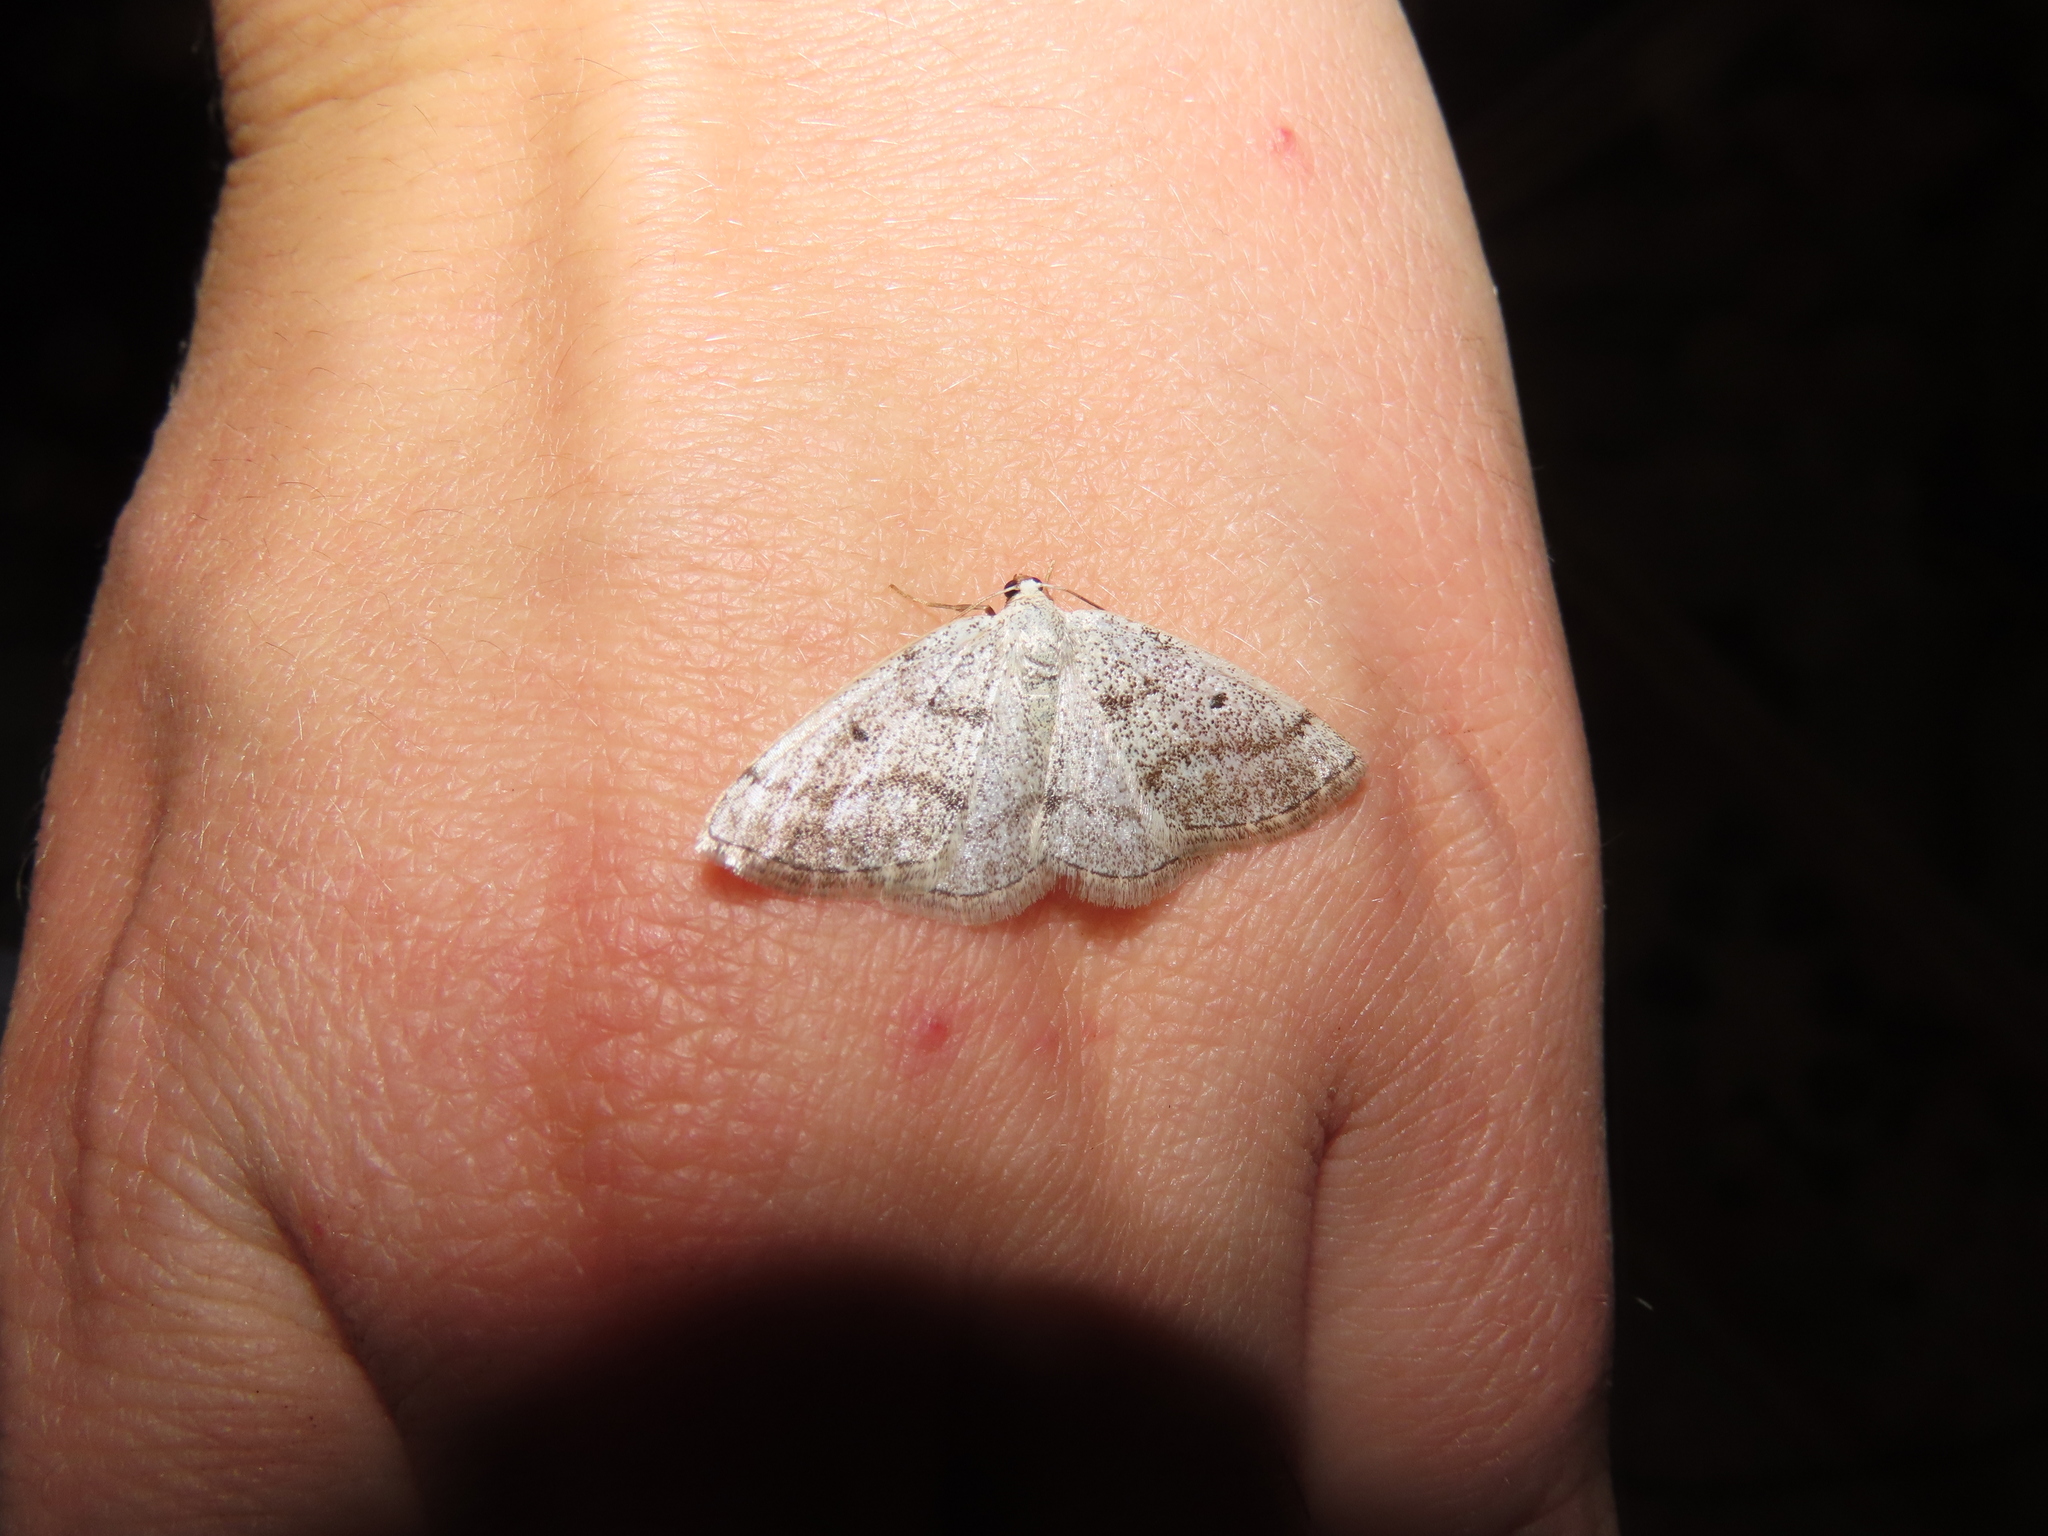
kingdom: Animalia
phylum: Arthropoda
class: Insecta
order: Lepidoptera
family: Geometridae
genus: Lomographa
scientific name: Lomographa glomeraria
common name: Gray spring moth
